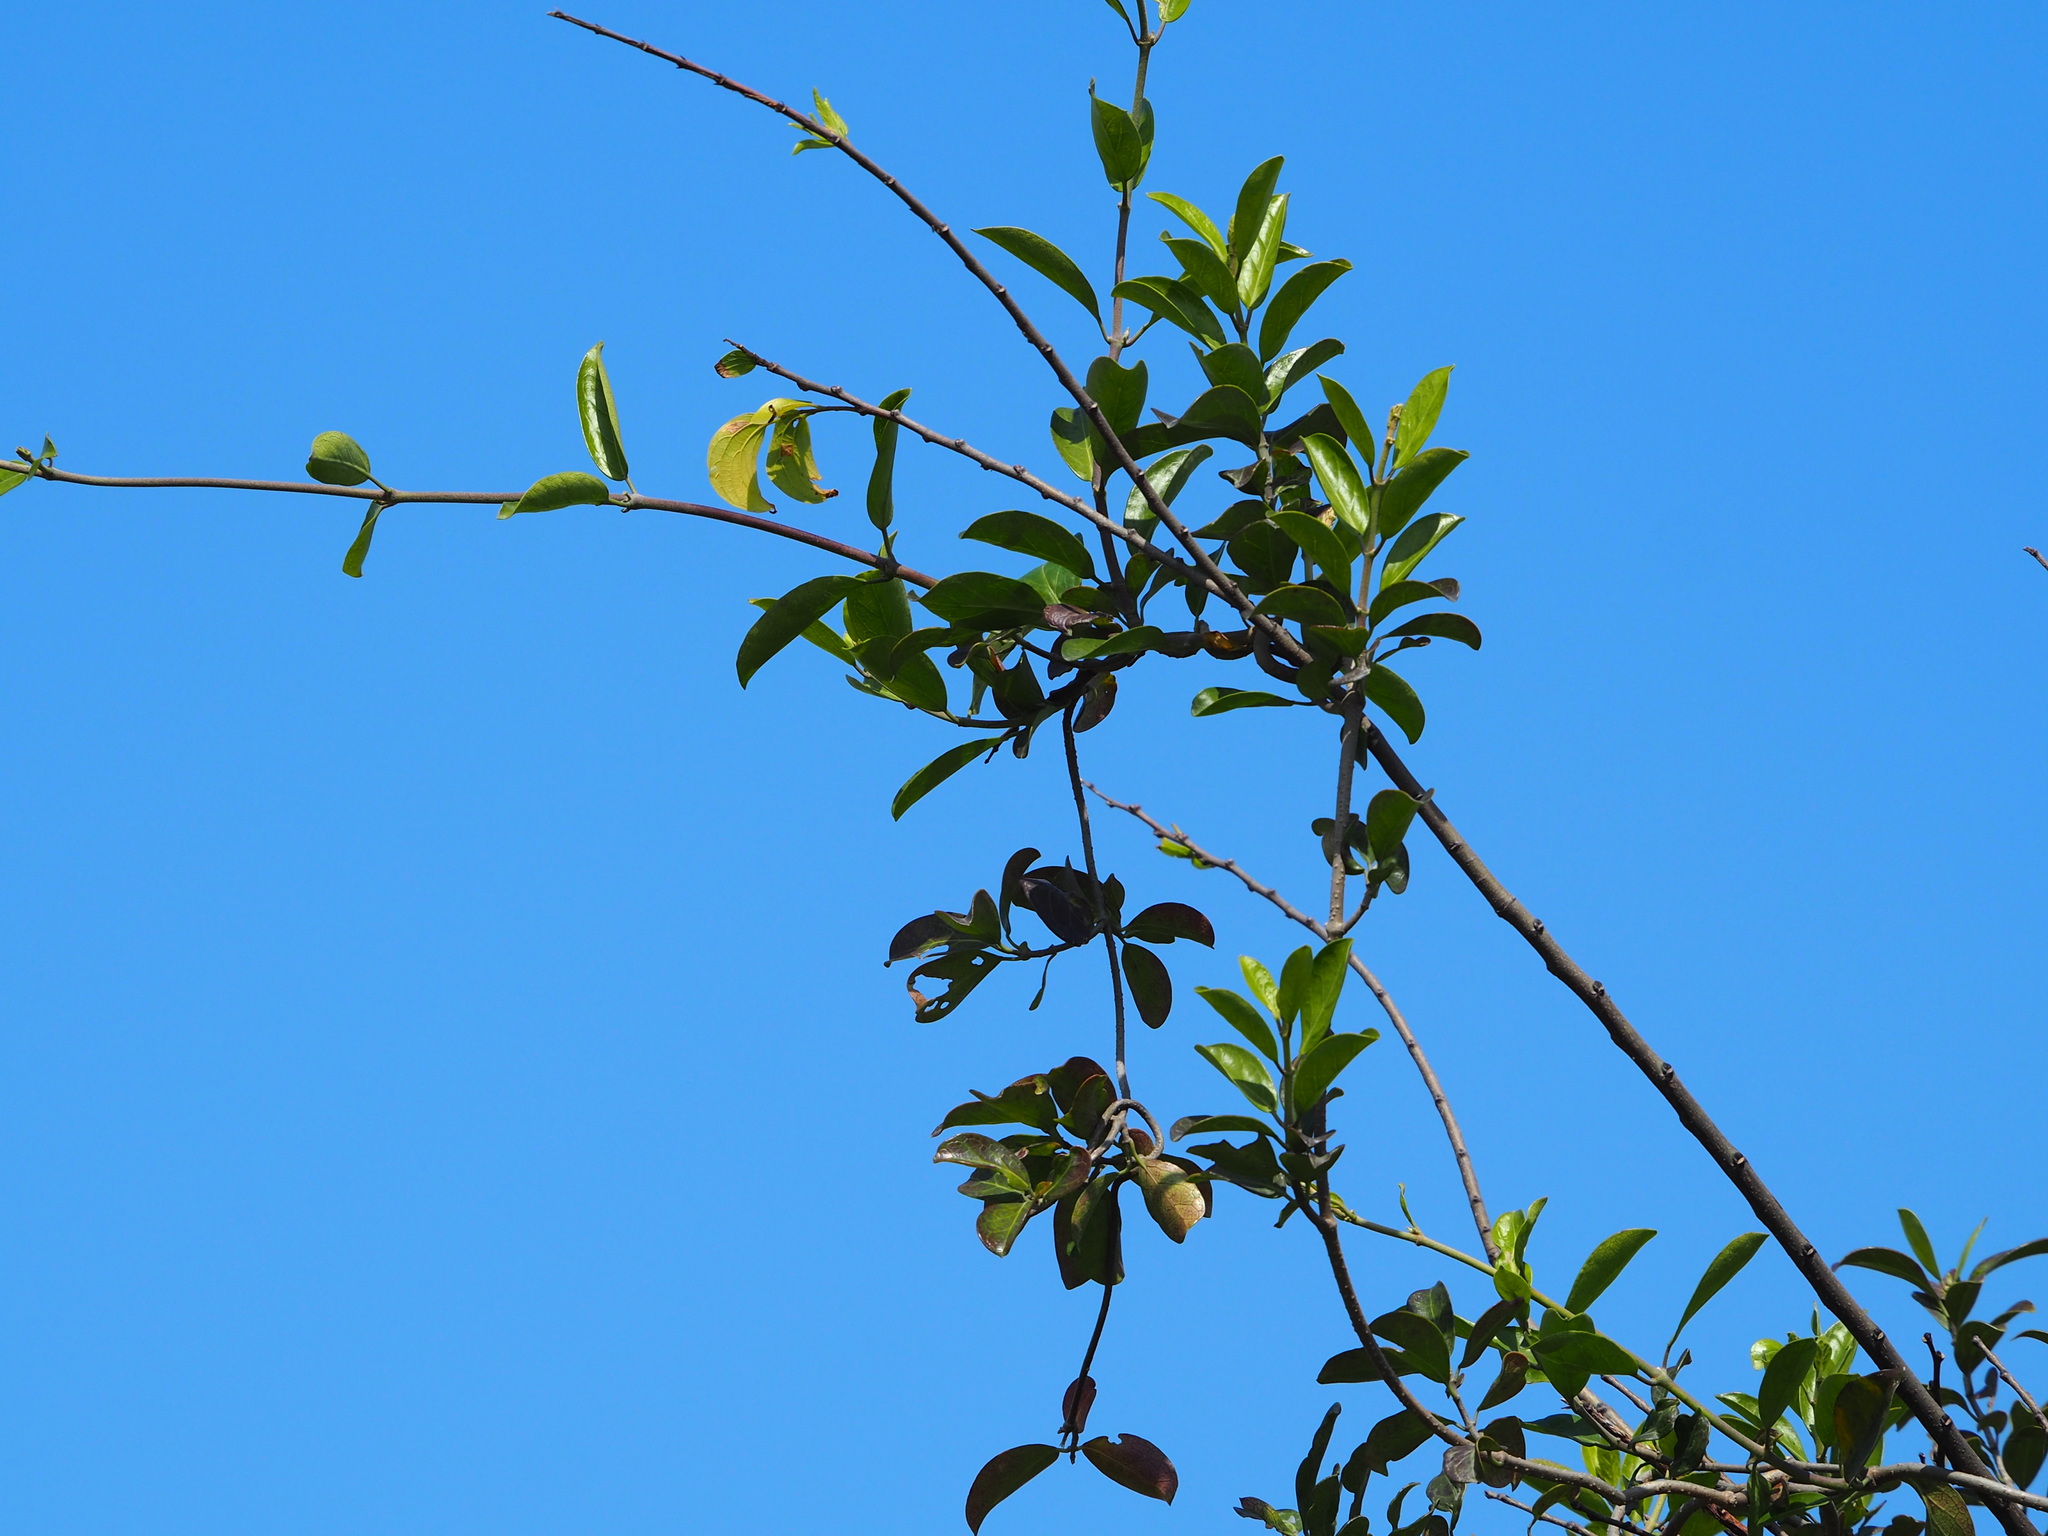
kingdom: Plantae
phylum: Tracheophyta
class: Magnoliopsida
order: Gentianales
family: Apocynaceae
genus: Gymnema
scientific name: Gymnema sylvestre
